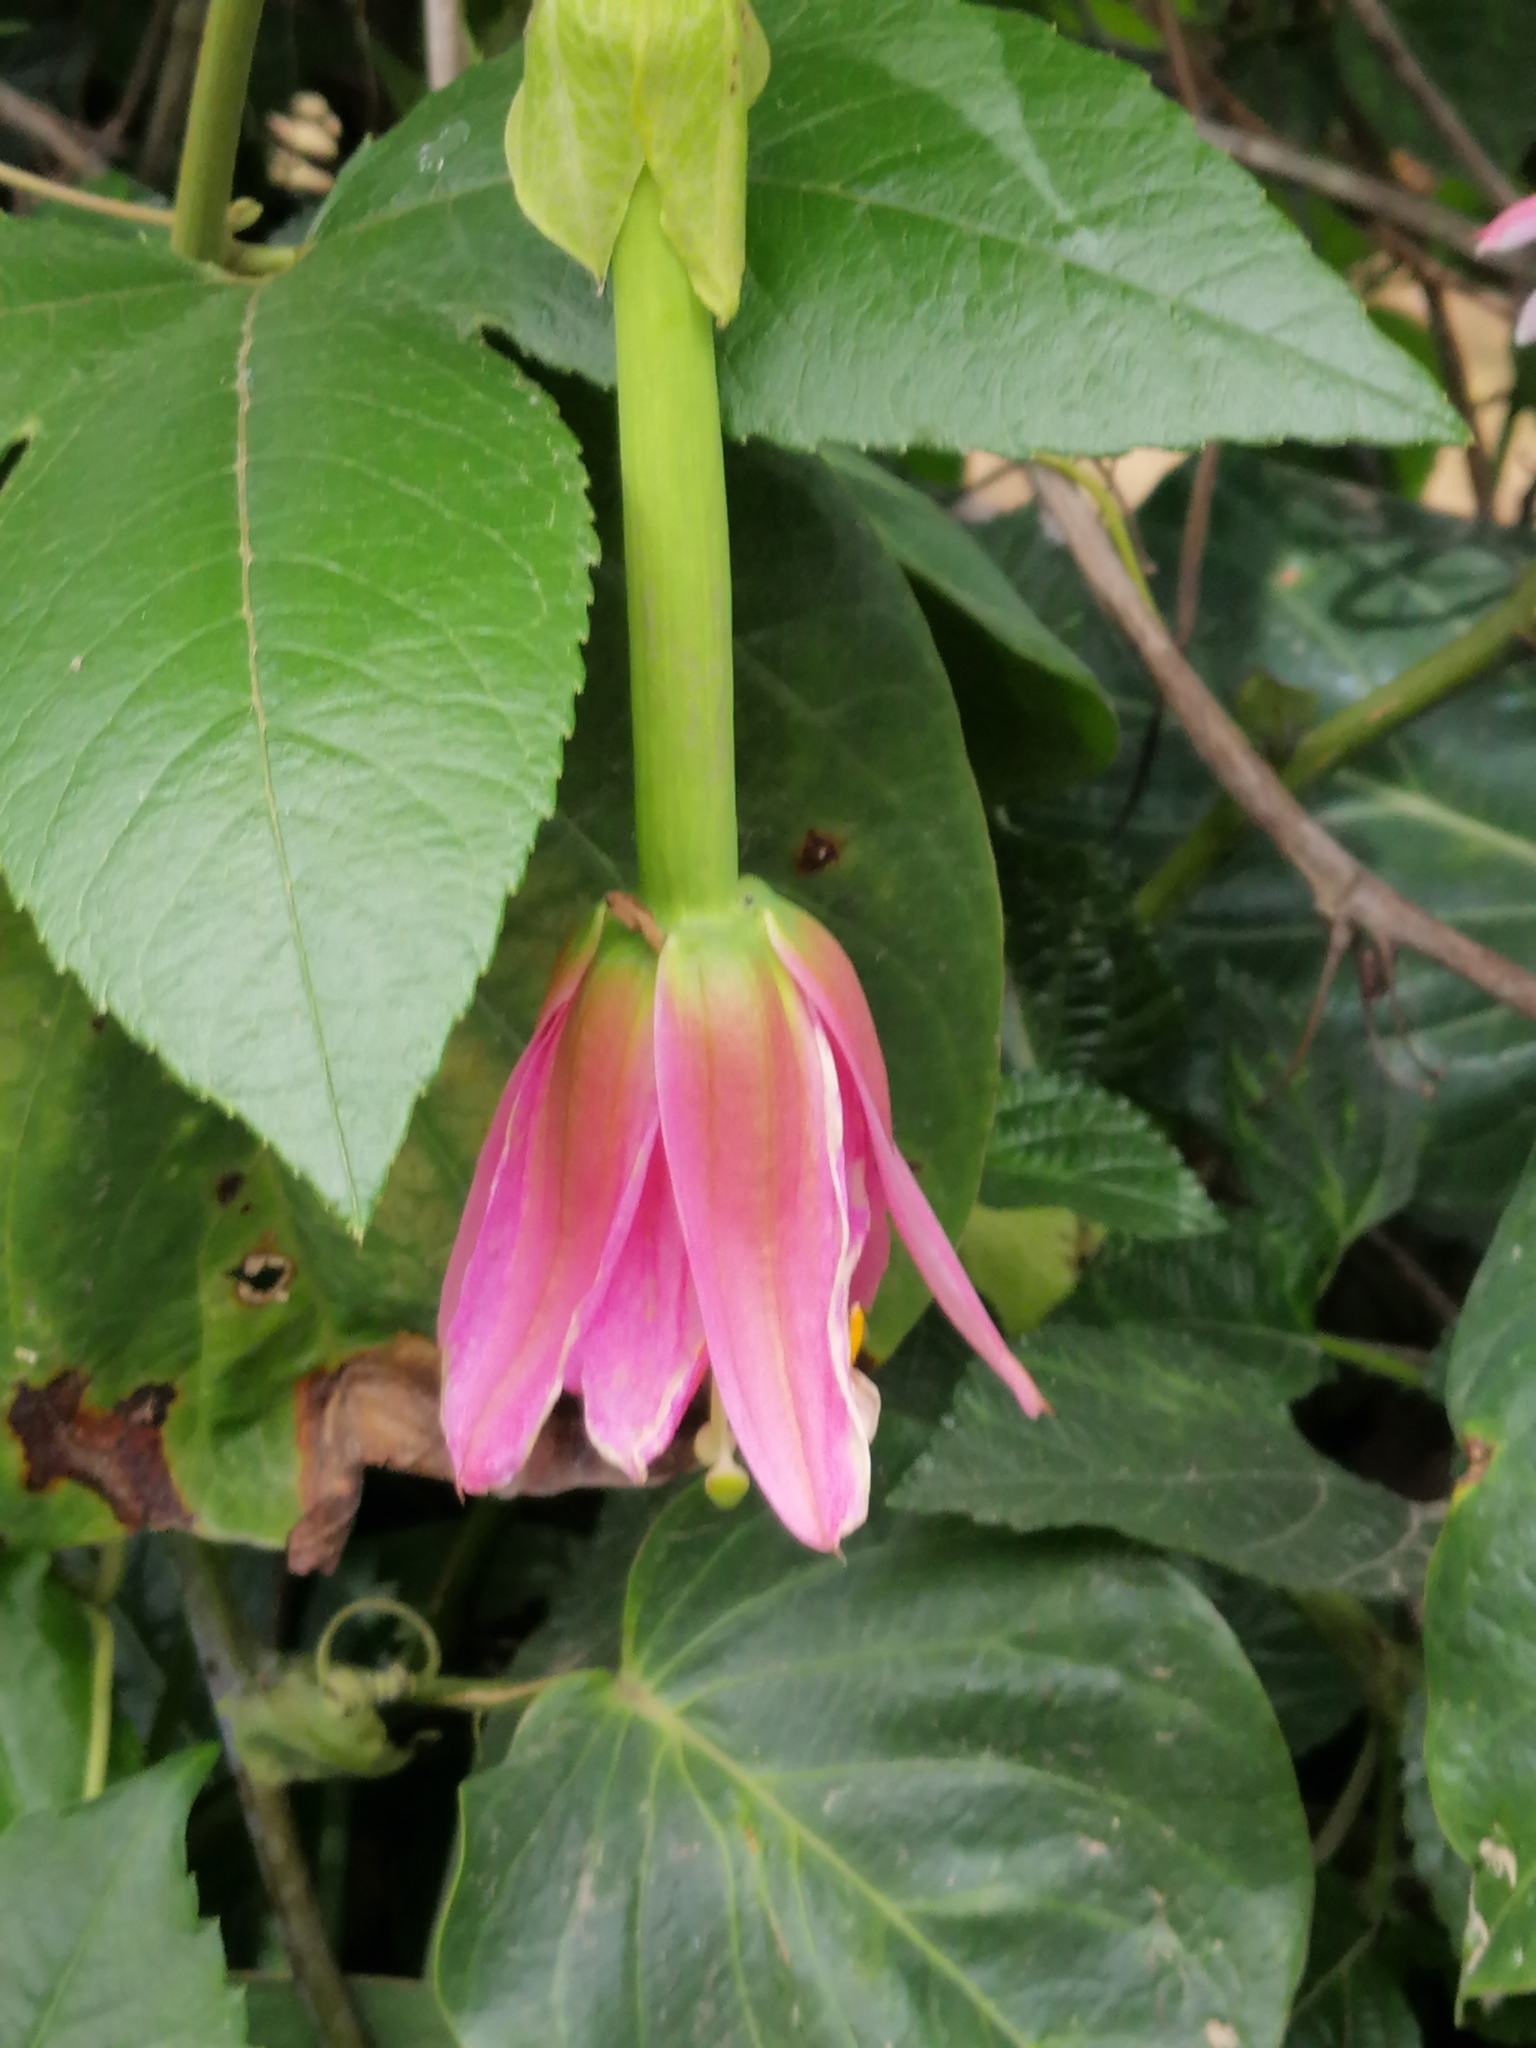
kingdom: Plantae
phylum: Tracheophyta
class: Magnoliopsida
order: Malpighiales
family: Passifloraceae
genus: Passiflora
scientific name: Passiflora tarminiana
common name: Banana poka
